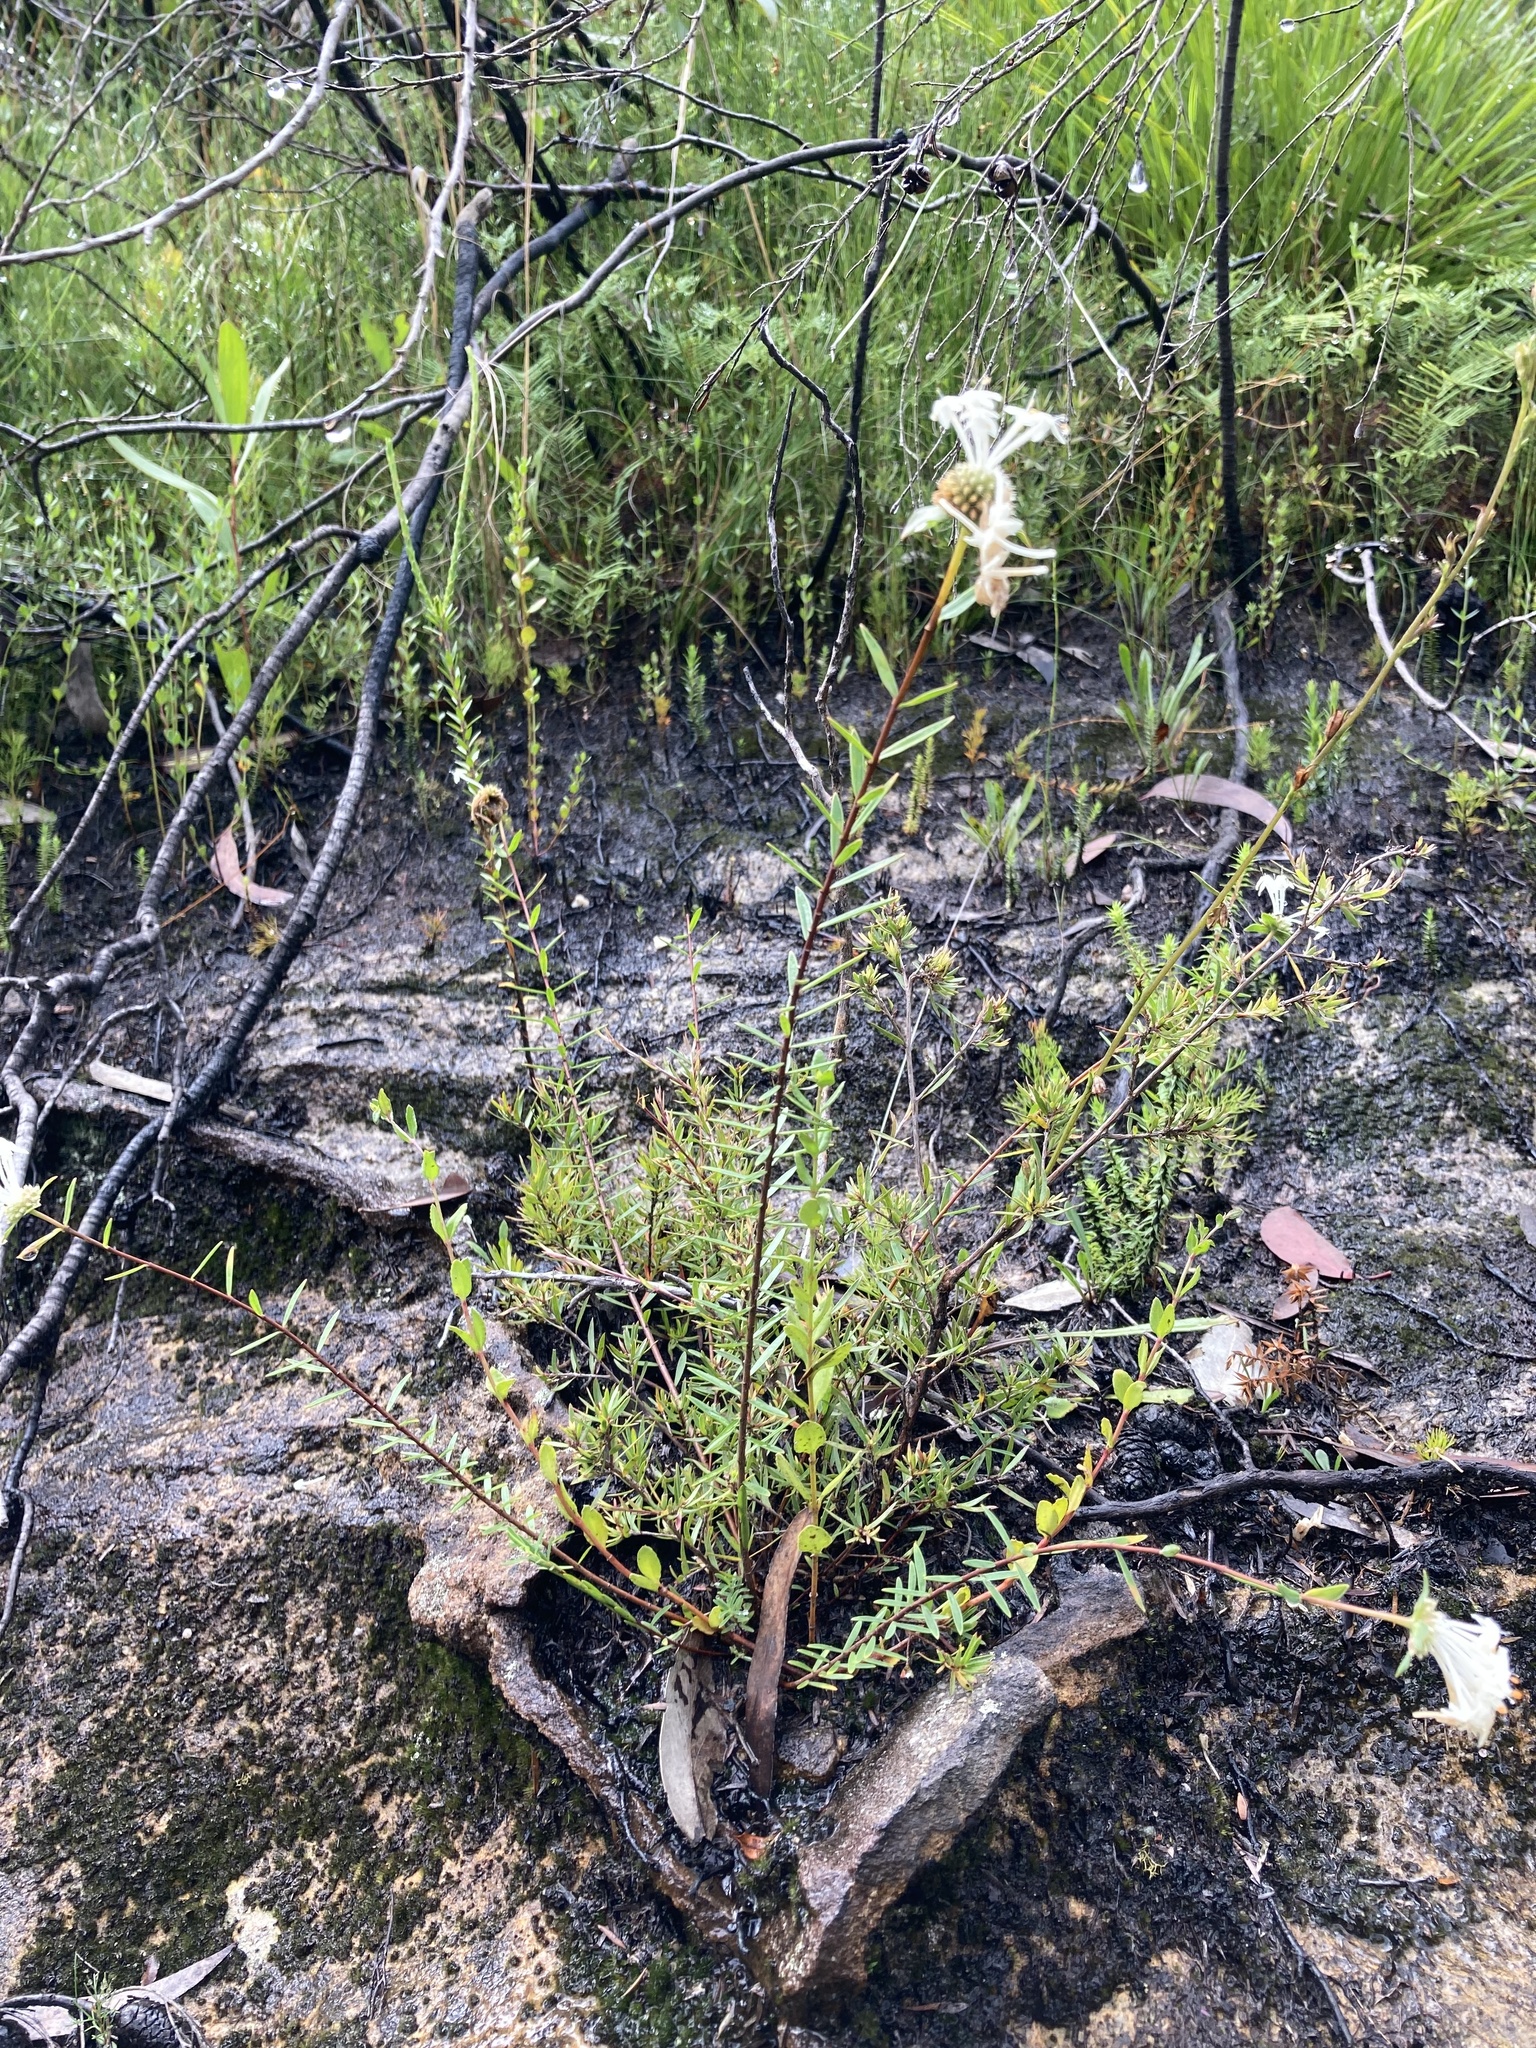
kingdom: Plantae
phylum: Tracheophyta
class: Magnoliopsida
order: Malvales
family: Thymelaeaceae
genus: Pimelea
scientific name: Pimelea linifolia
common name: Queen-of-the-bush
